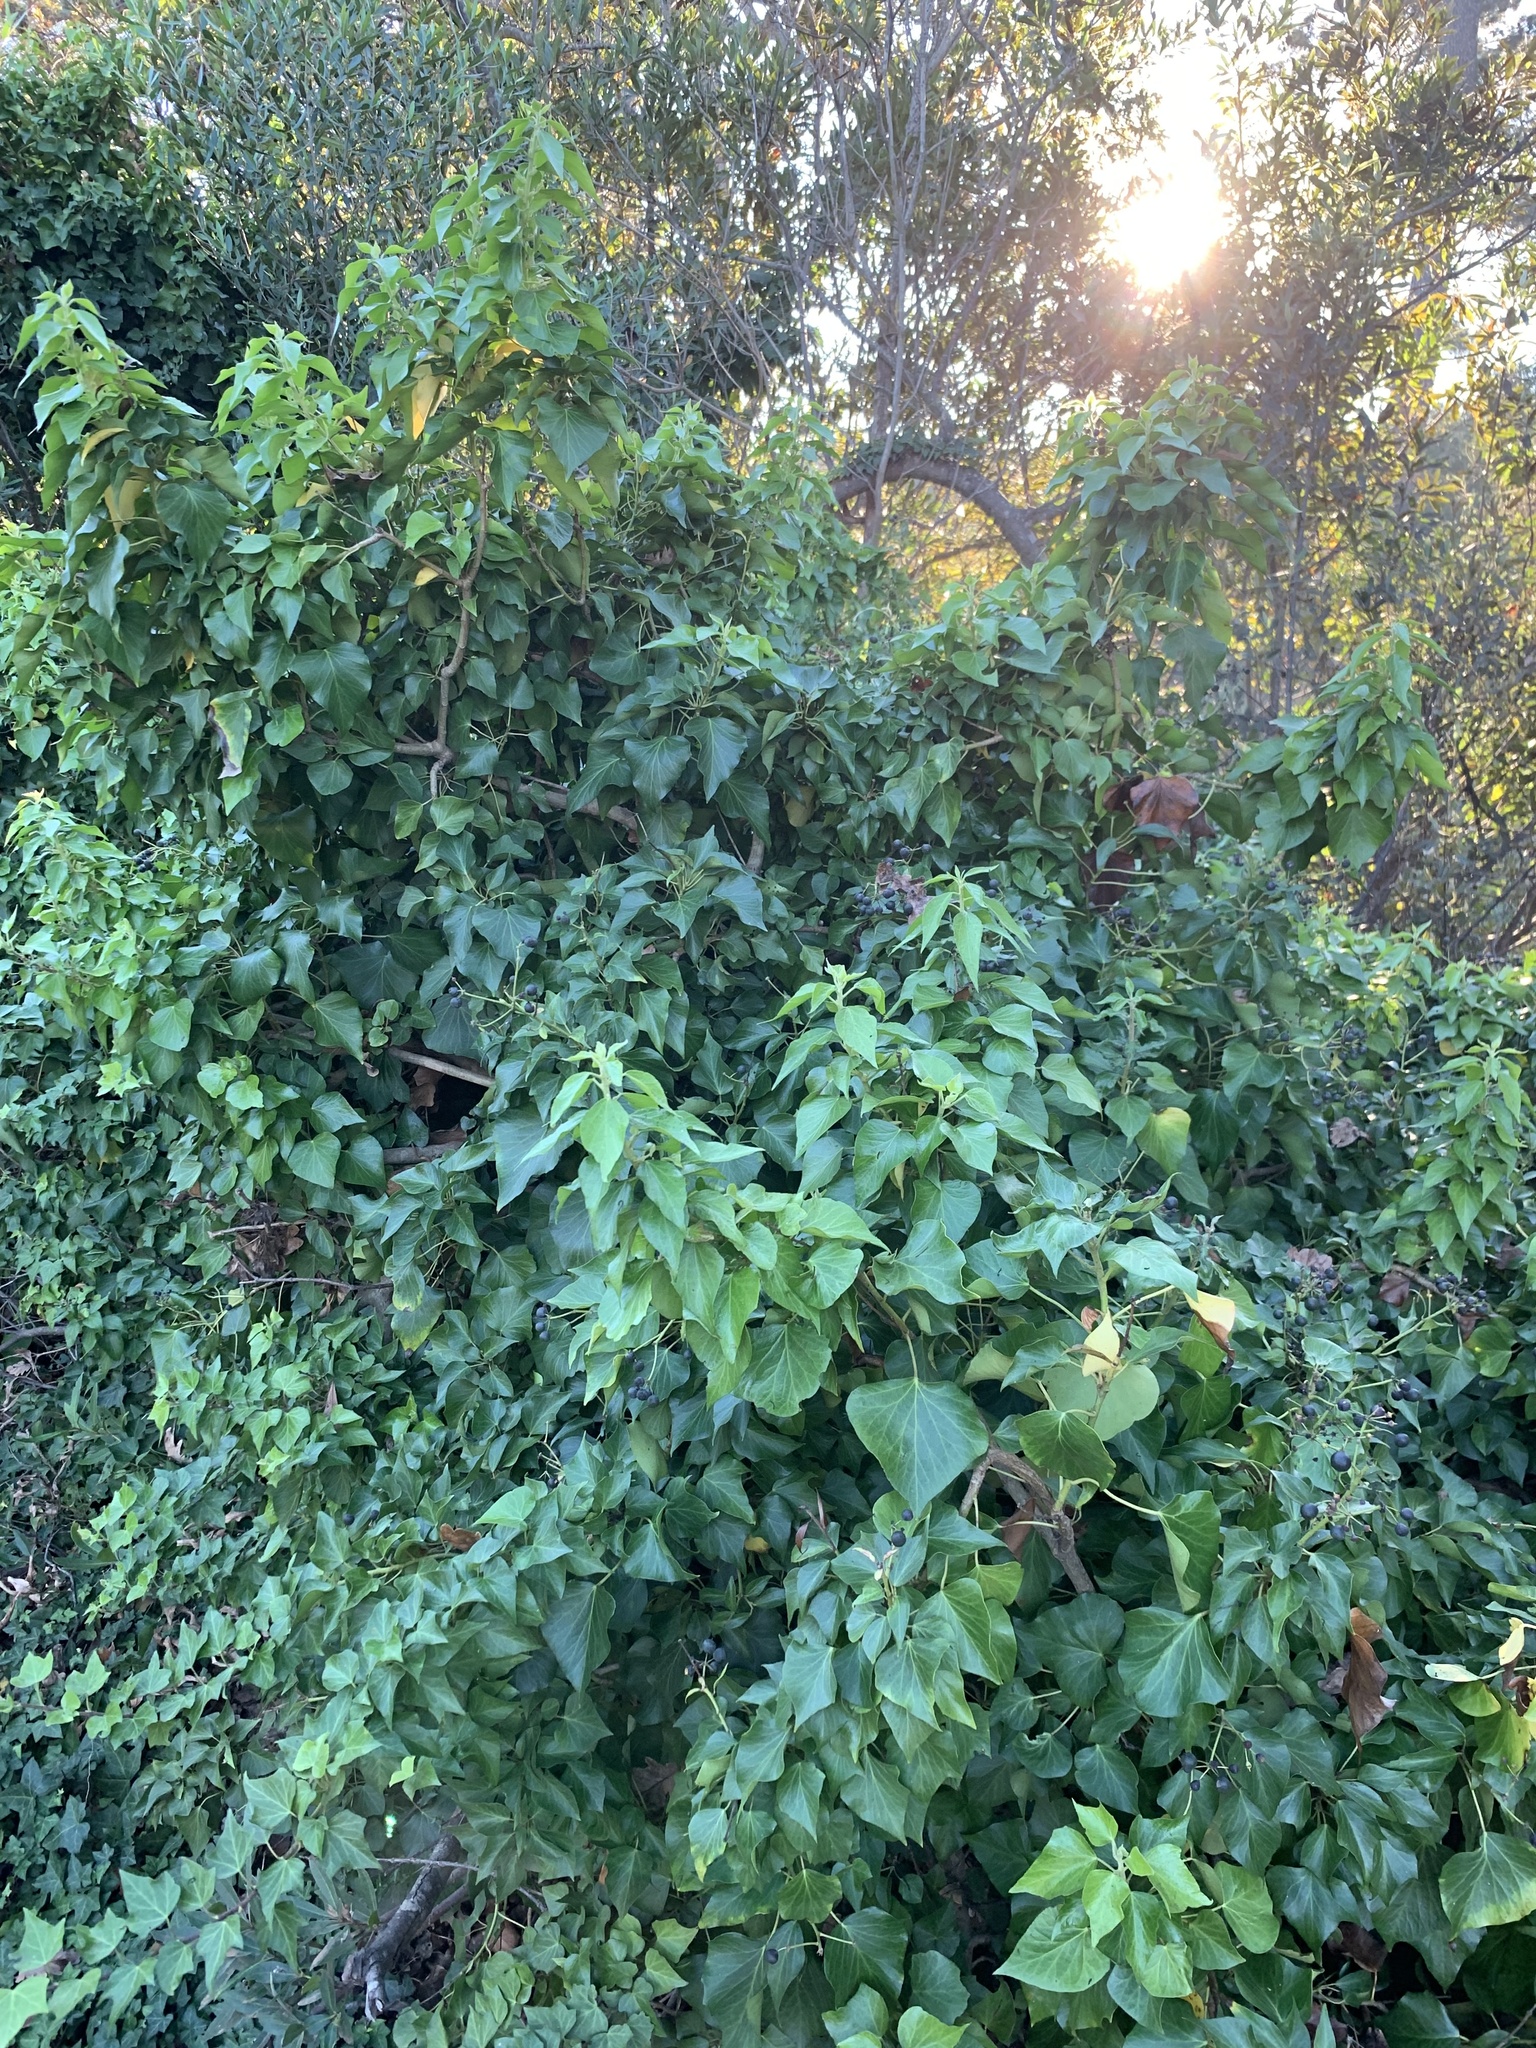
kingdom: Plantae
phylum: Tracheophyta
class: Magnoliopsida
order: Apiales
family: Araliaceae
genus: Hedera
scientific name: Hedera canariensis
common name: Madeira ivy
